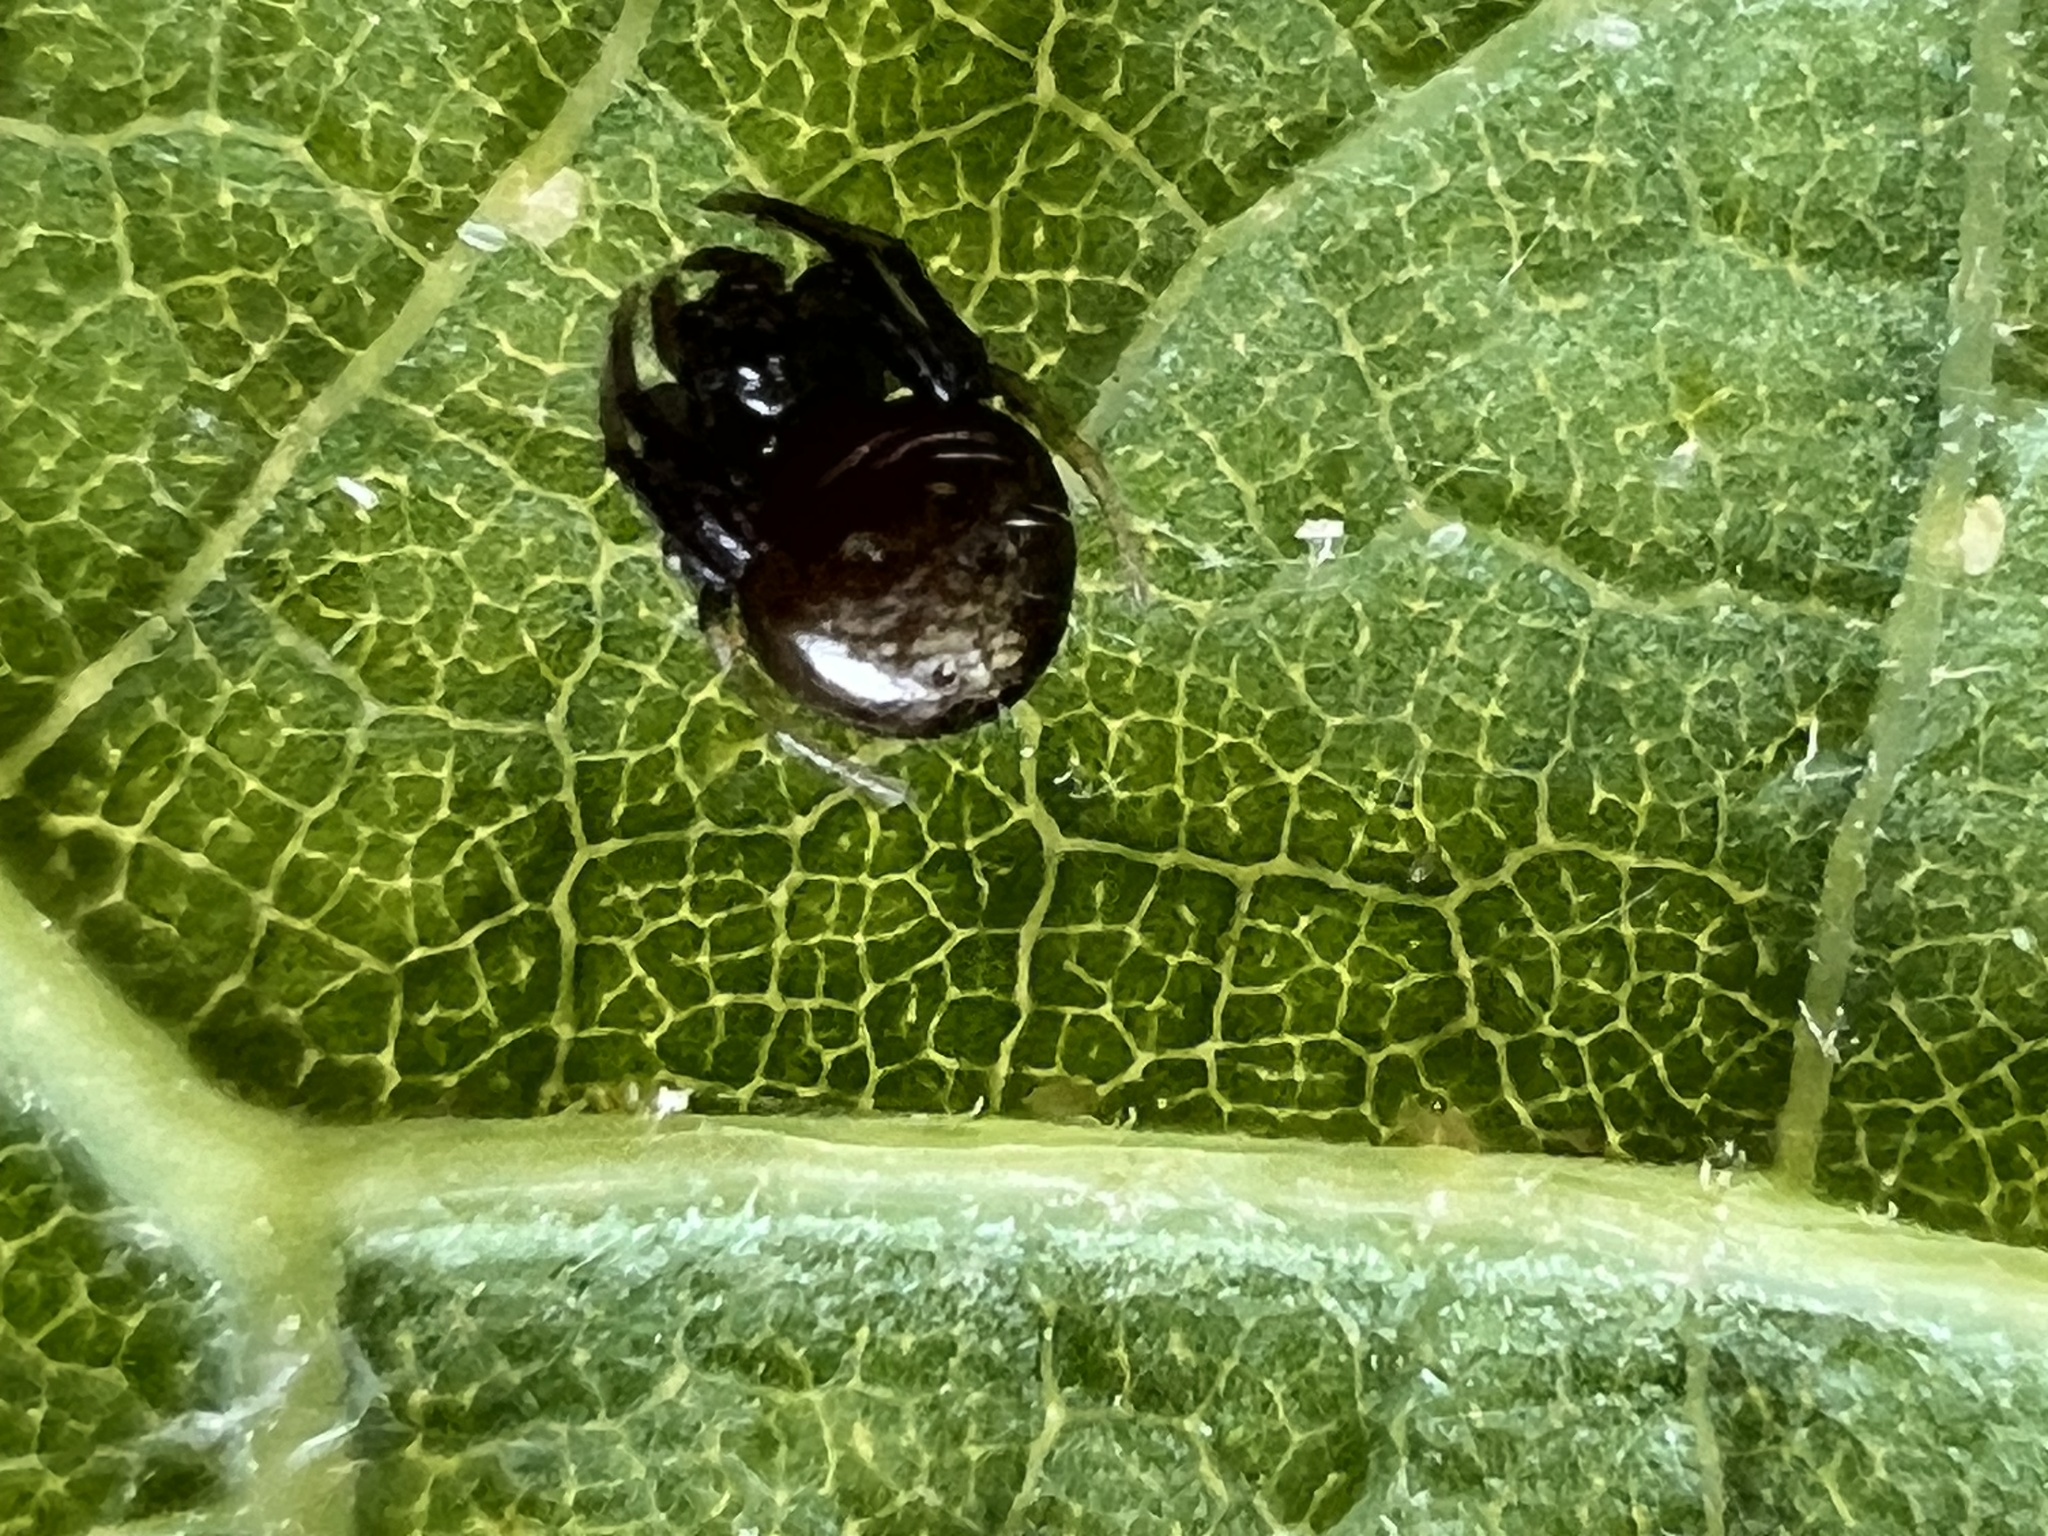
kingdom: Animalia
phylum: Arthropoda
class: Arachnida
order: Araneae
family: Araneidae
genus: Verrucosa
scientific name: Verrucosa arenata
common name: Orb weavers
